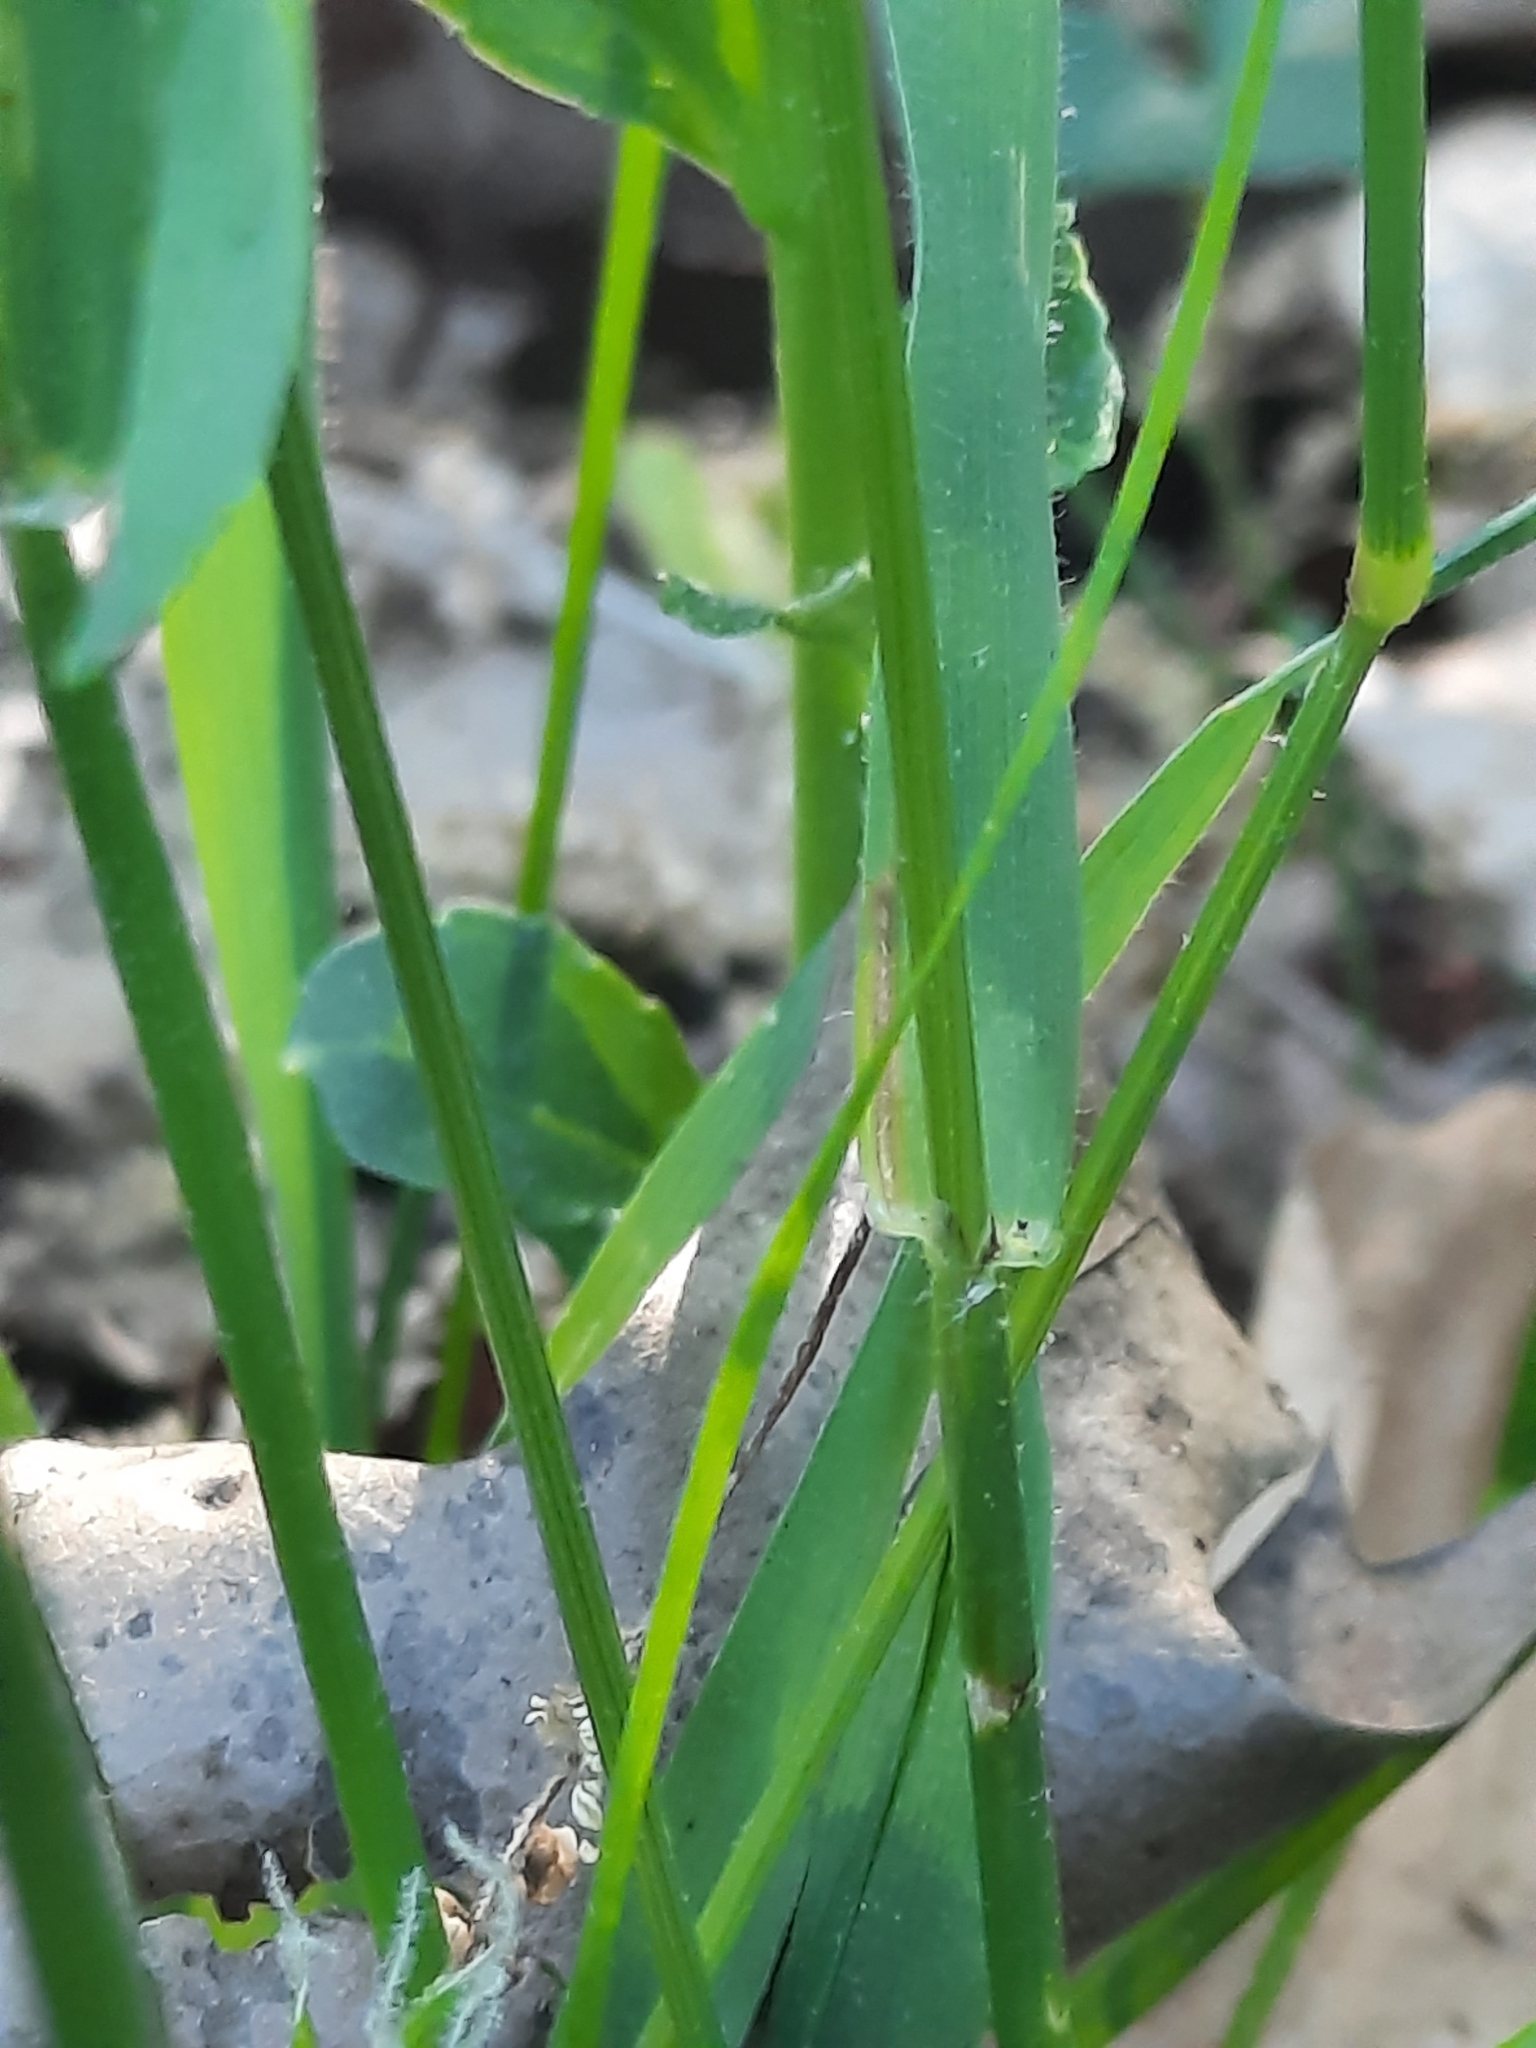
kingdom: Plantae
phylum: Tracheophyta
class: Liliopsida
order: Poales
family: Poaceae
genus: Anthoxanthum
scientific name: Anthoxanthum odoratum
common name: Sweet vernalgrass
